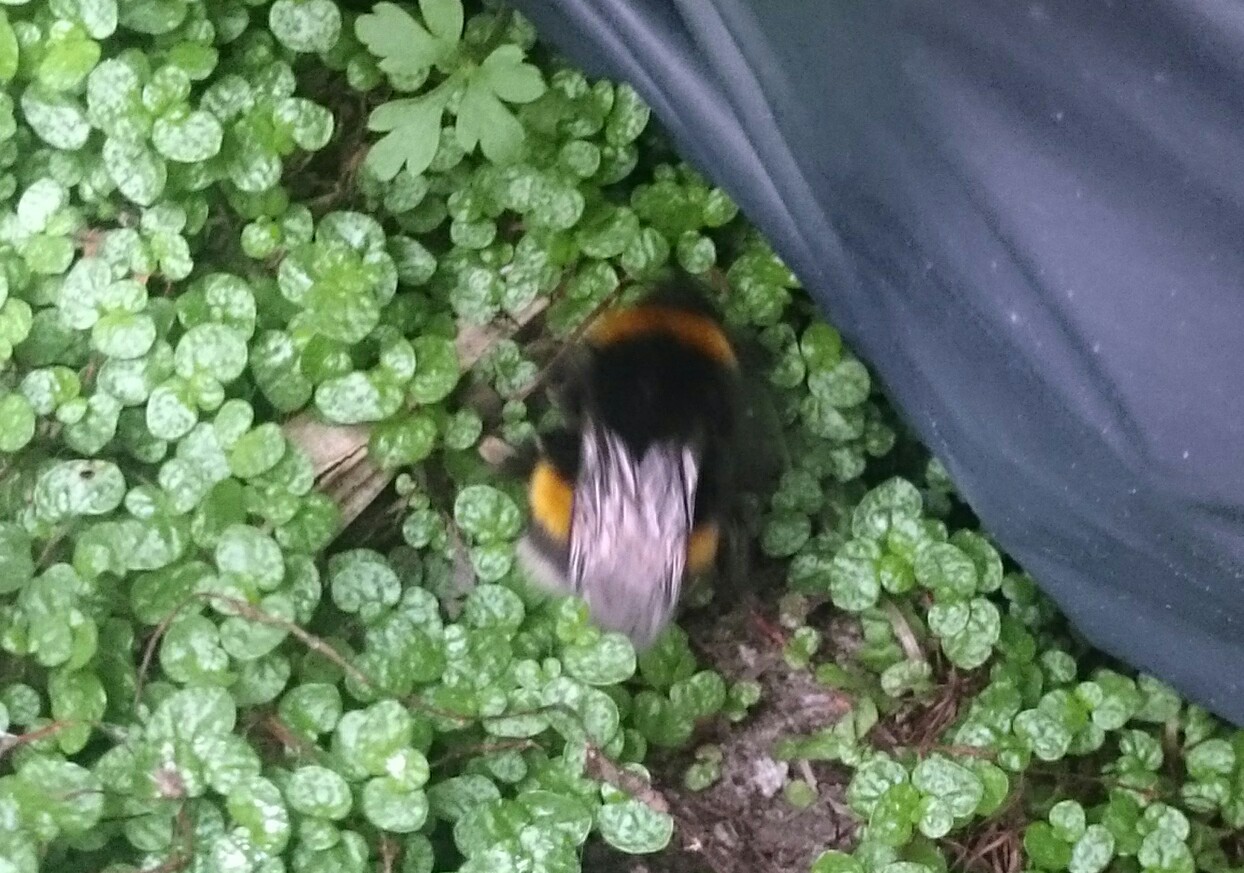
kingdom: Animalia
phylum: Arthropoda
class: Insecta
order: Hymenoptera
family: Apidae
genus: Bombus
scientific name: Bombus terrestris
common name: Buff-tailed bumblebee
